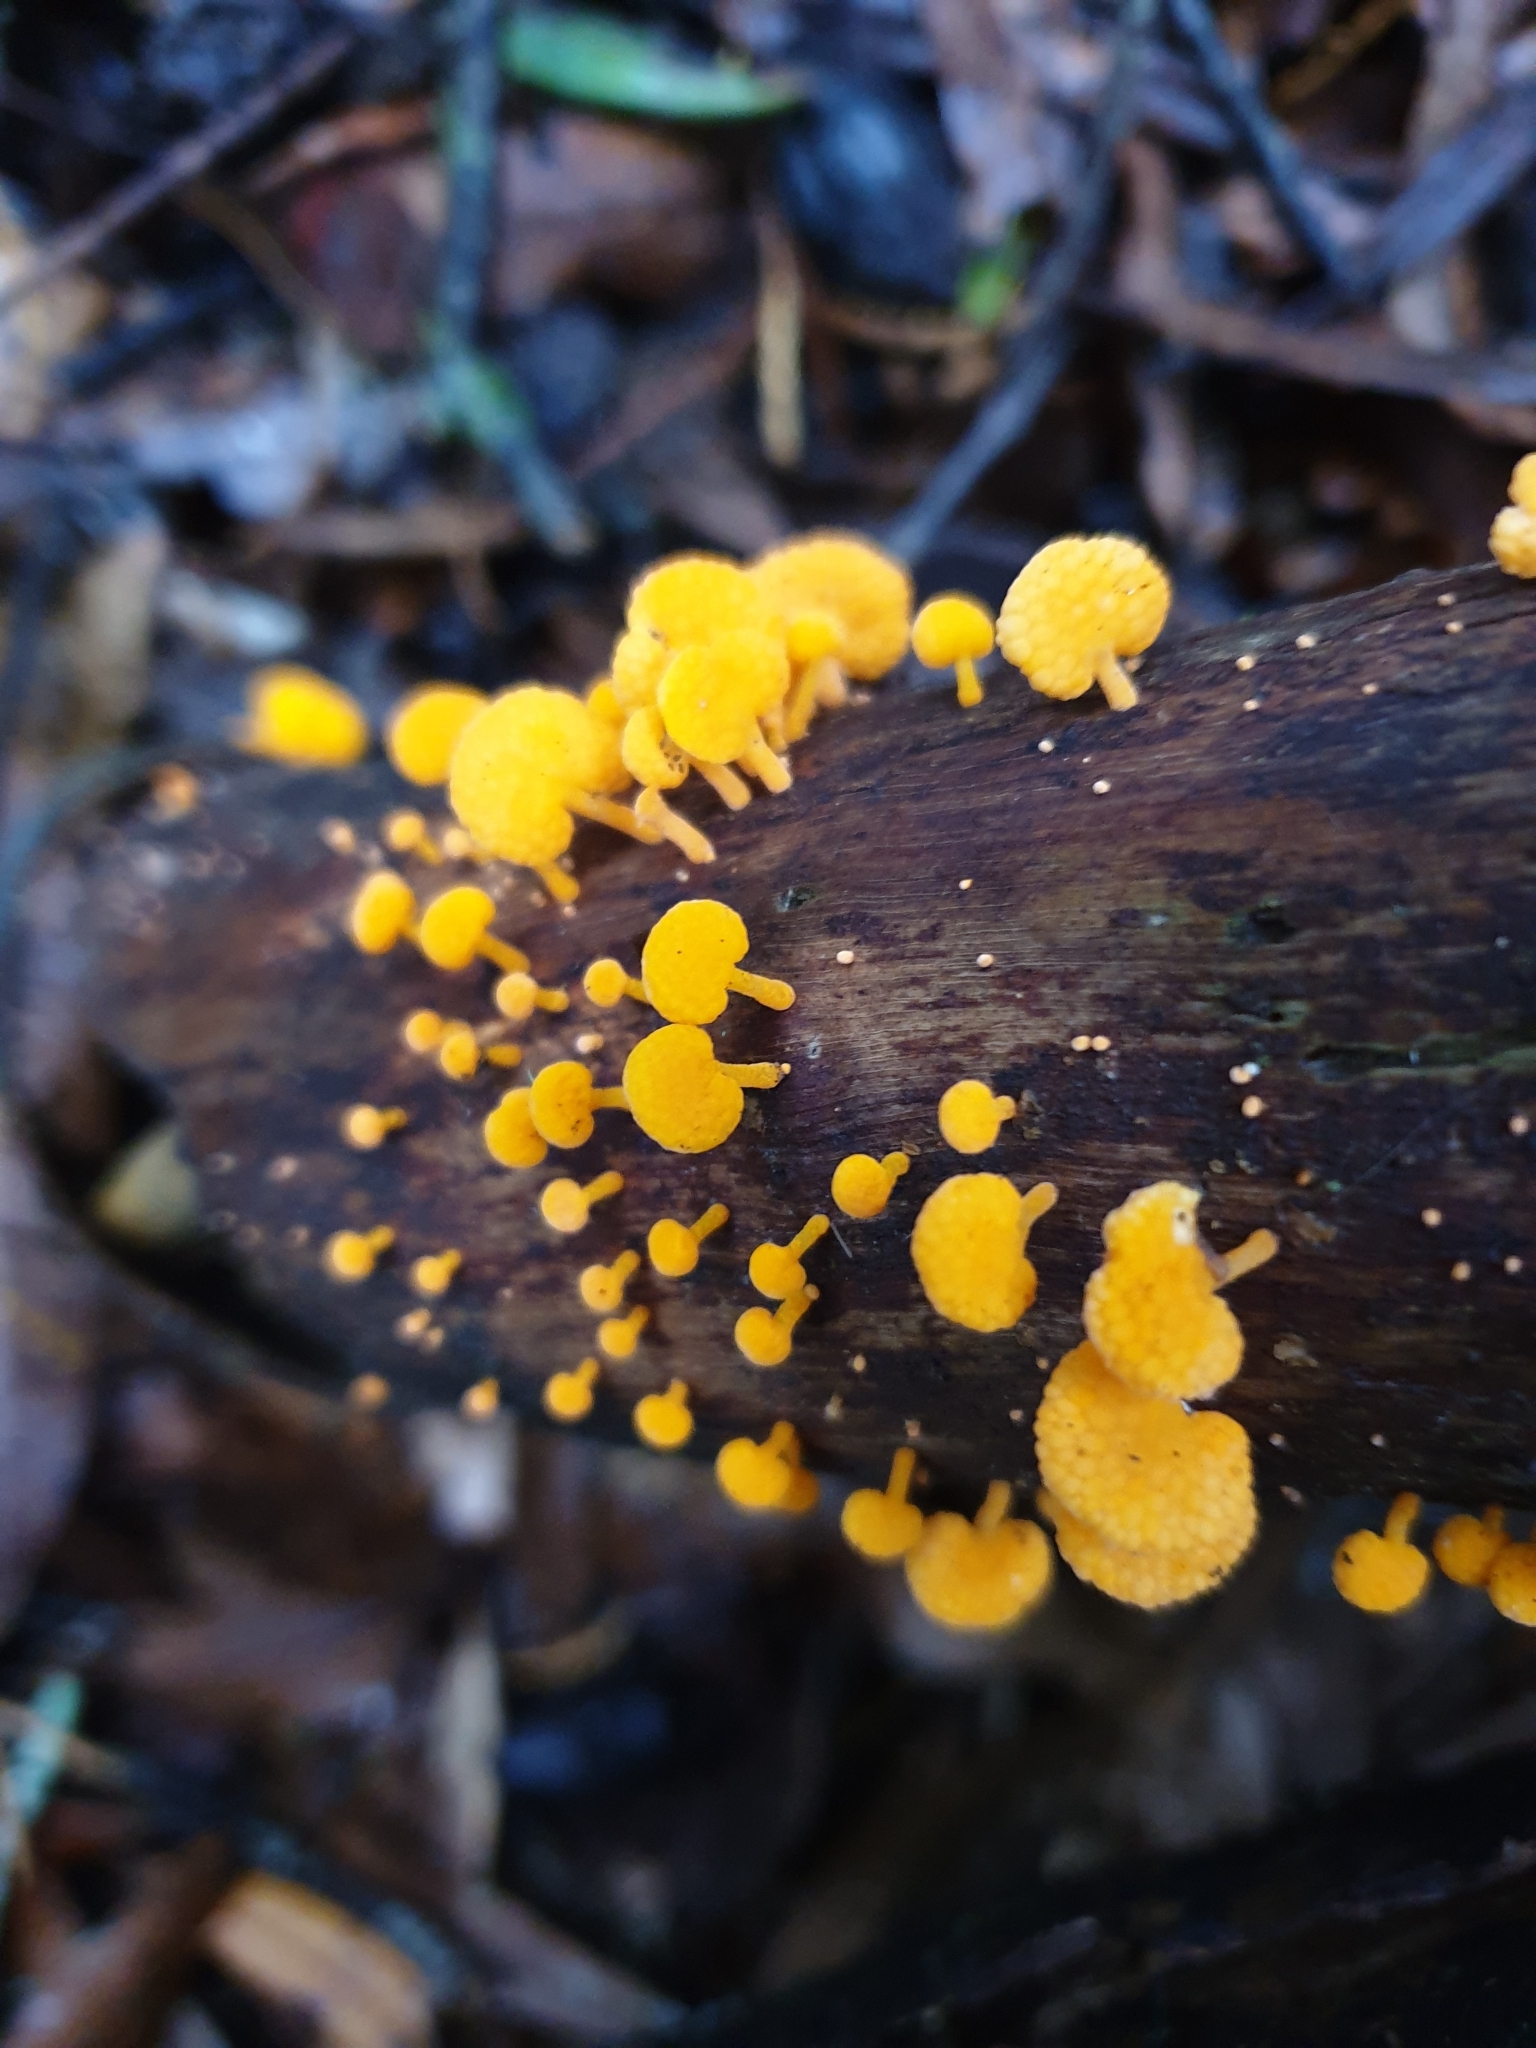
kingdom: Fungi
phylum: Basidiomycota
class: Agaricomycetes
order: Agaricales
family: Mycenaceae
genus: Favolaschia
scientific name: Favolaschia claudopus
